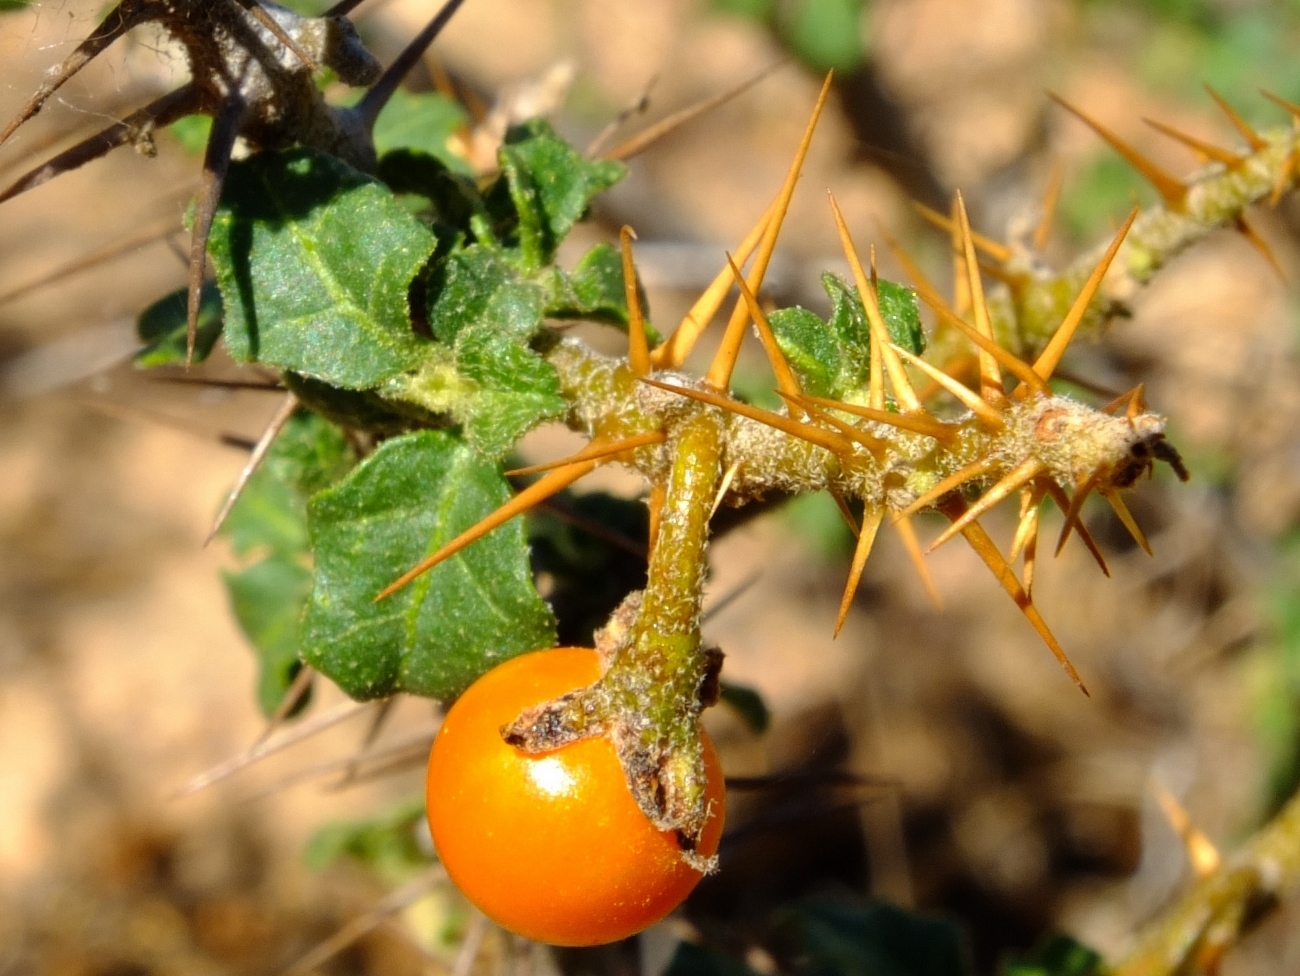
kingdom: Plantae
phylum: Tracheophyta
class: Magnoliopsida
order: Solanales
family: Solanaceae
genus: Solanum
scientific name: Solanum humile
